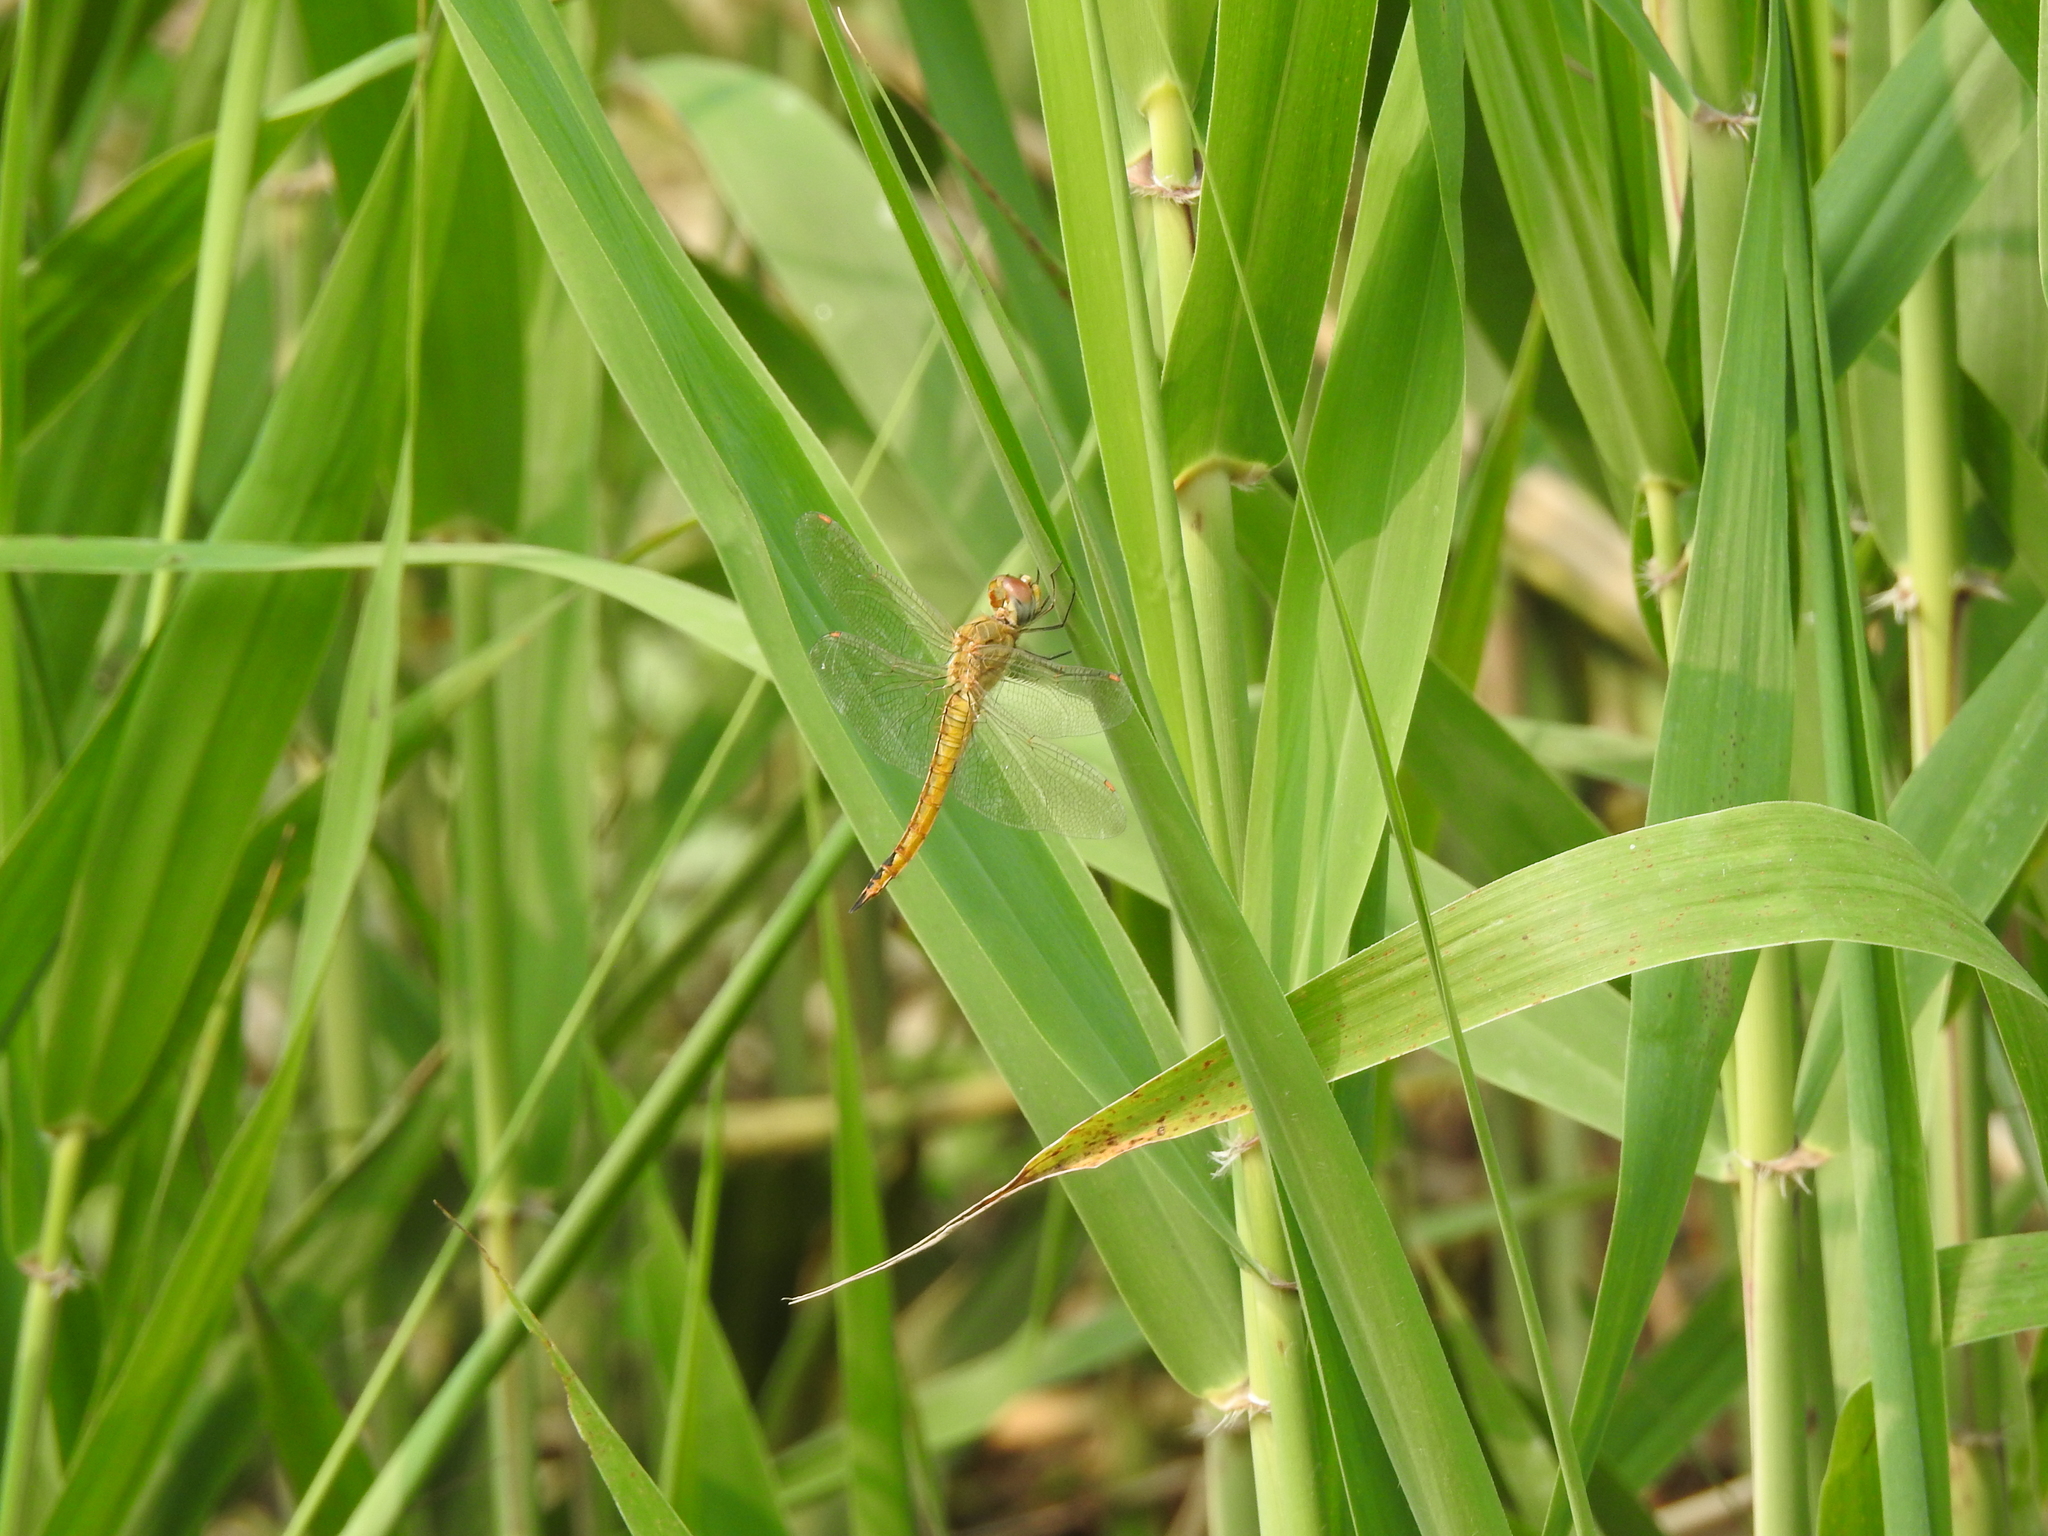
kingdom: Animalia
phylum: Arthropoda
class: Insecta
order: Odonata
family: Libellulidae
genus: Pantala
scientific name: Pantala flavescens
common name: Wandering glider
